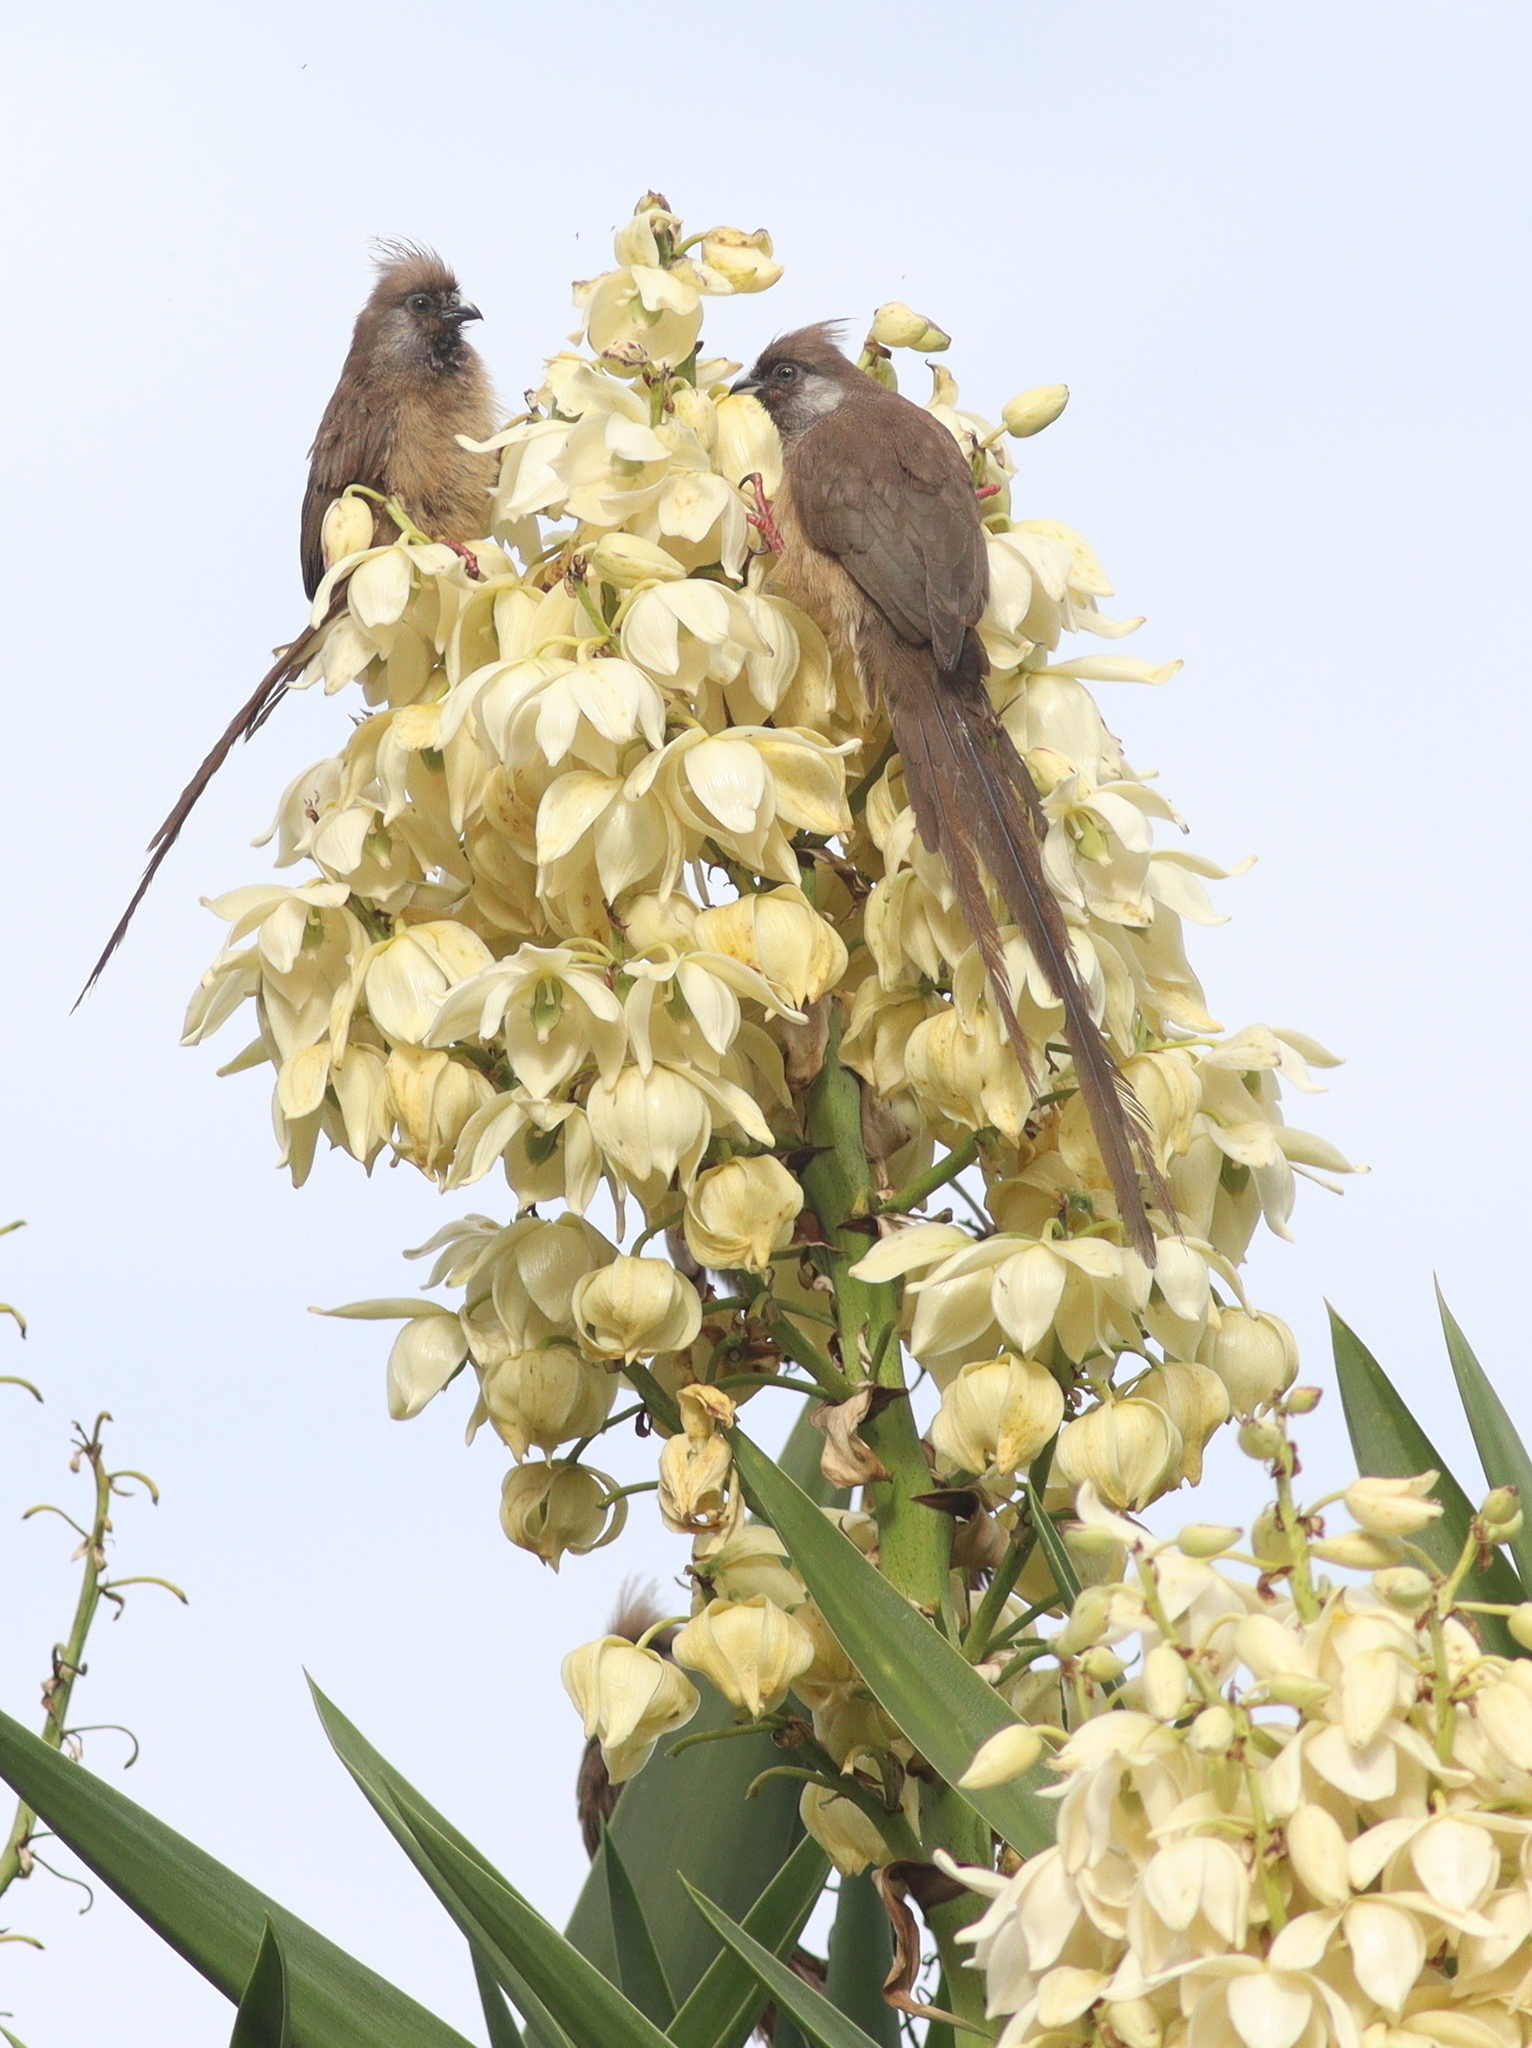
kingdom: Animalia
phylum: Chordata
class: Aves
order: Coliiformes
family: Coliidae
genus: Colius
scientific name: Colius striatus
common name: Speckled mousebird
